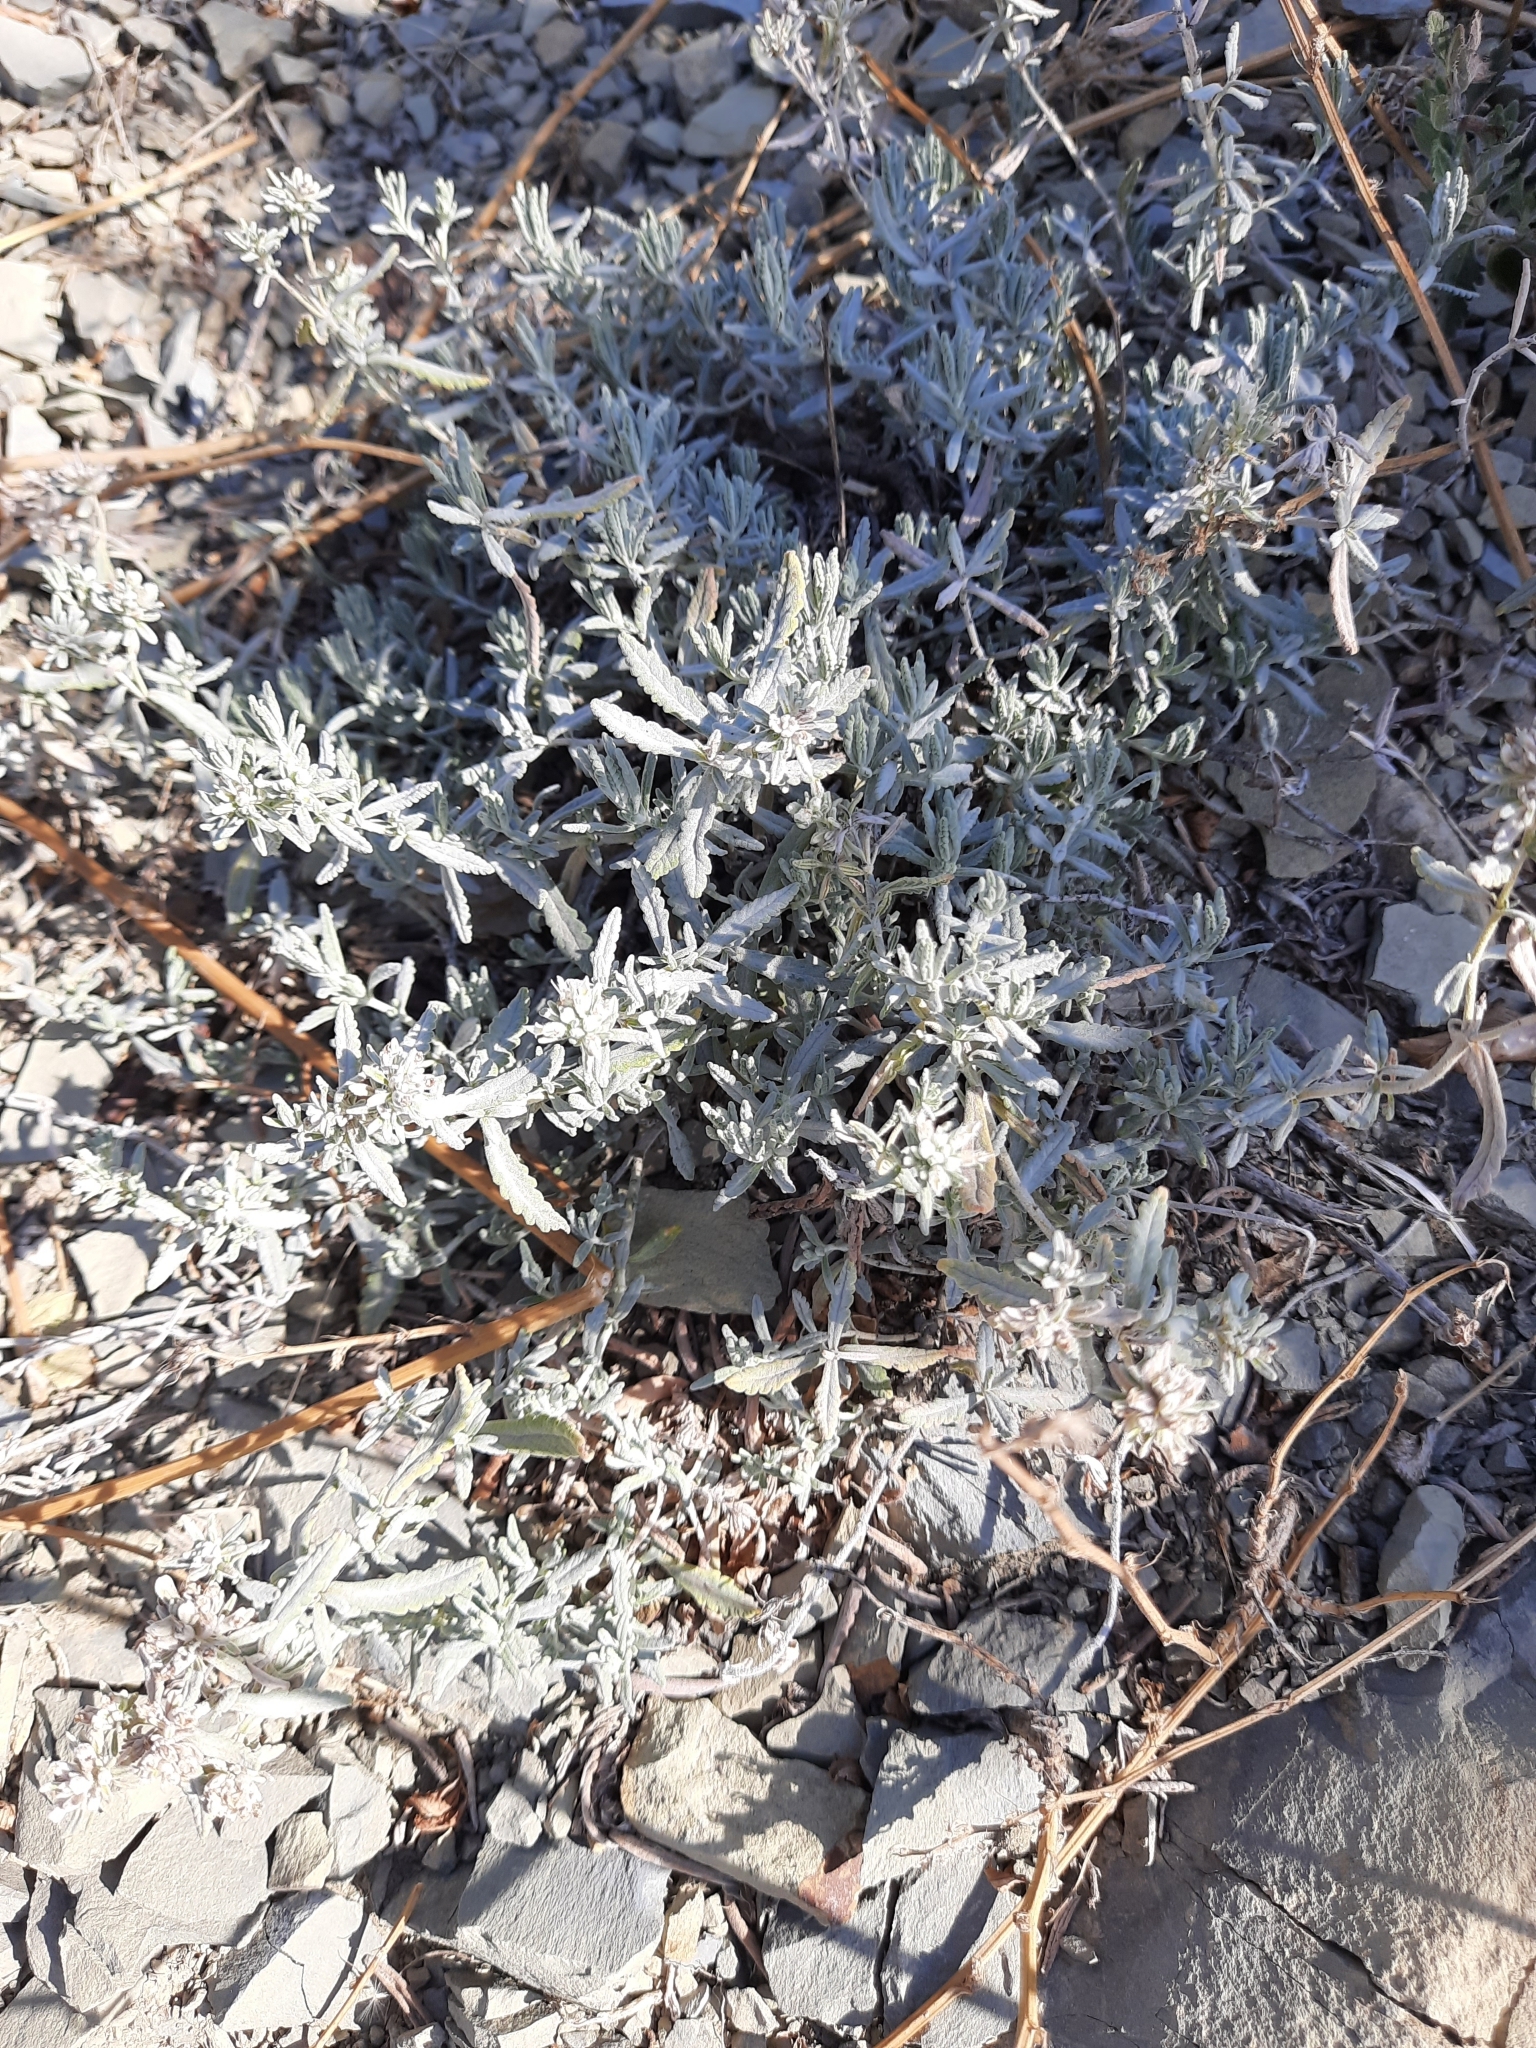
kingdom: Plantae
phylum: Tracheophyta
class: Magnoliopsida
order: Lamiales
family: Lamiaceae
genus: Teucrium
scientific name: Teucrium polium
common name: Poley
